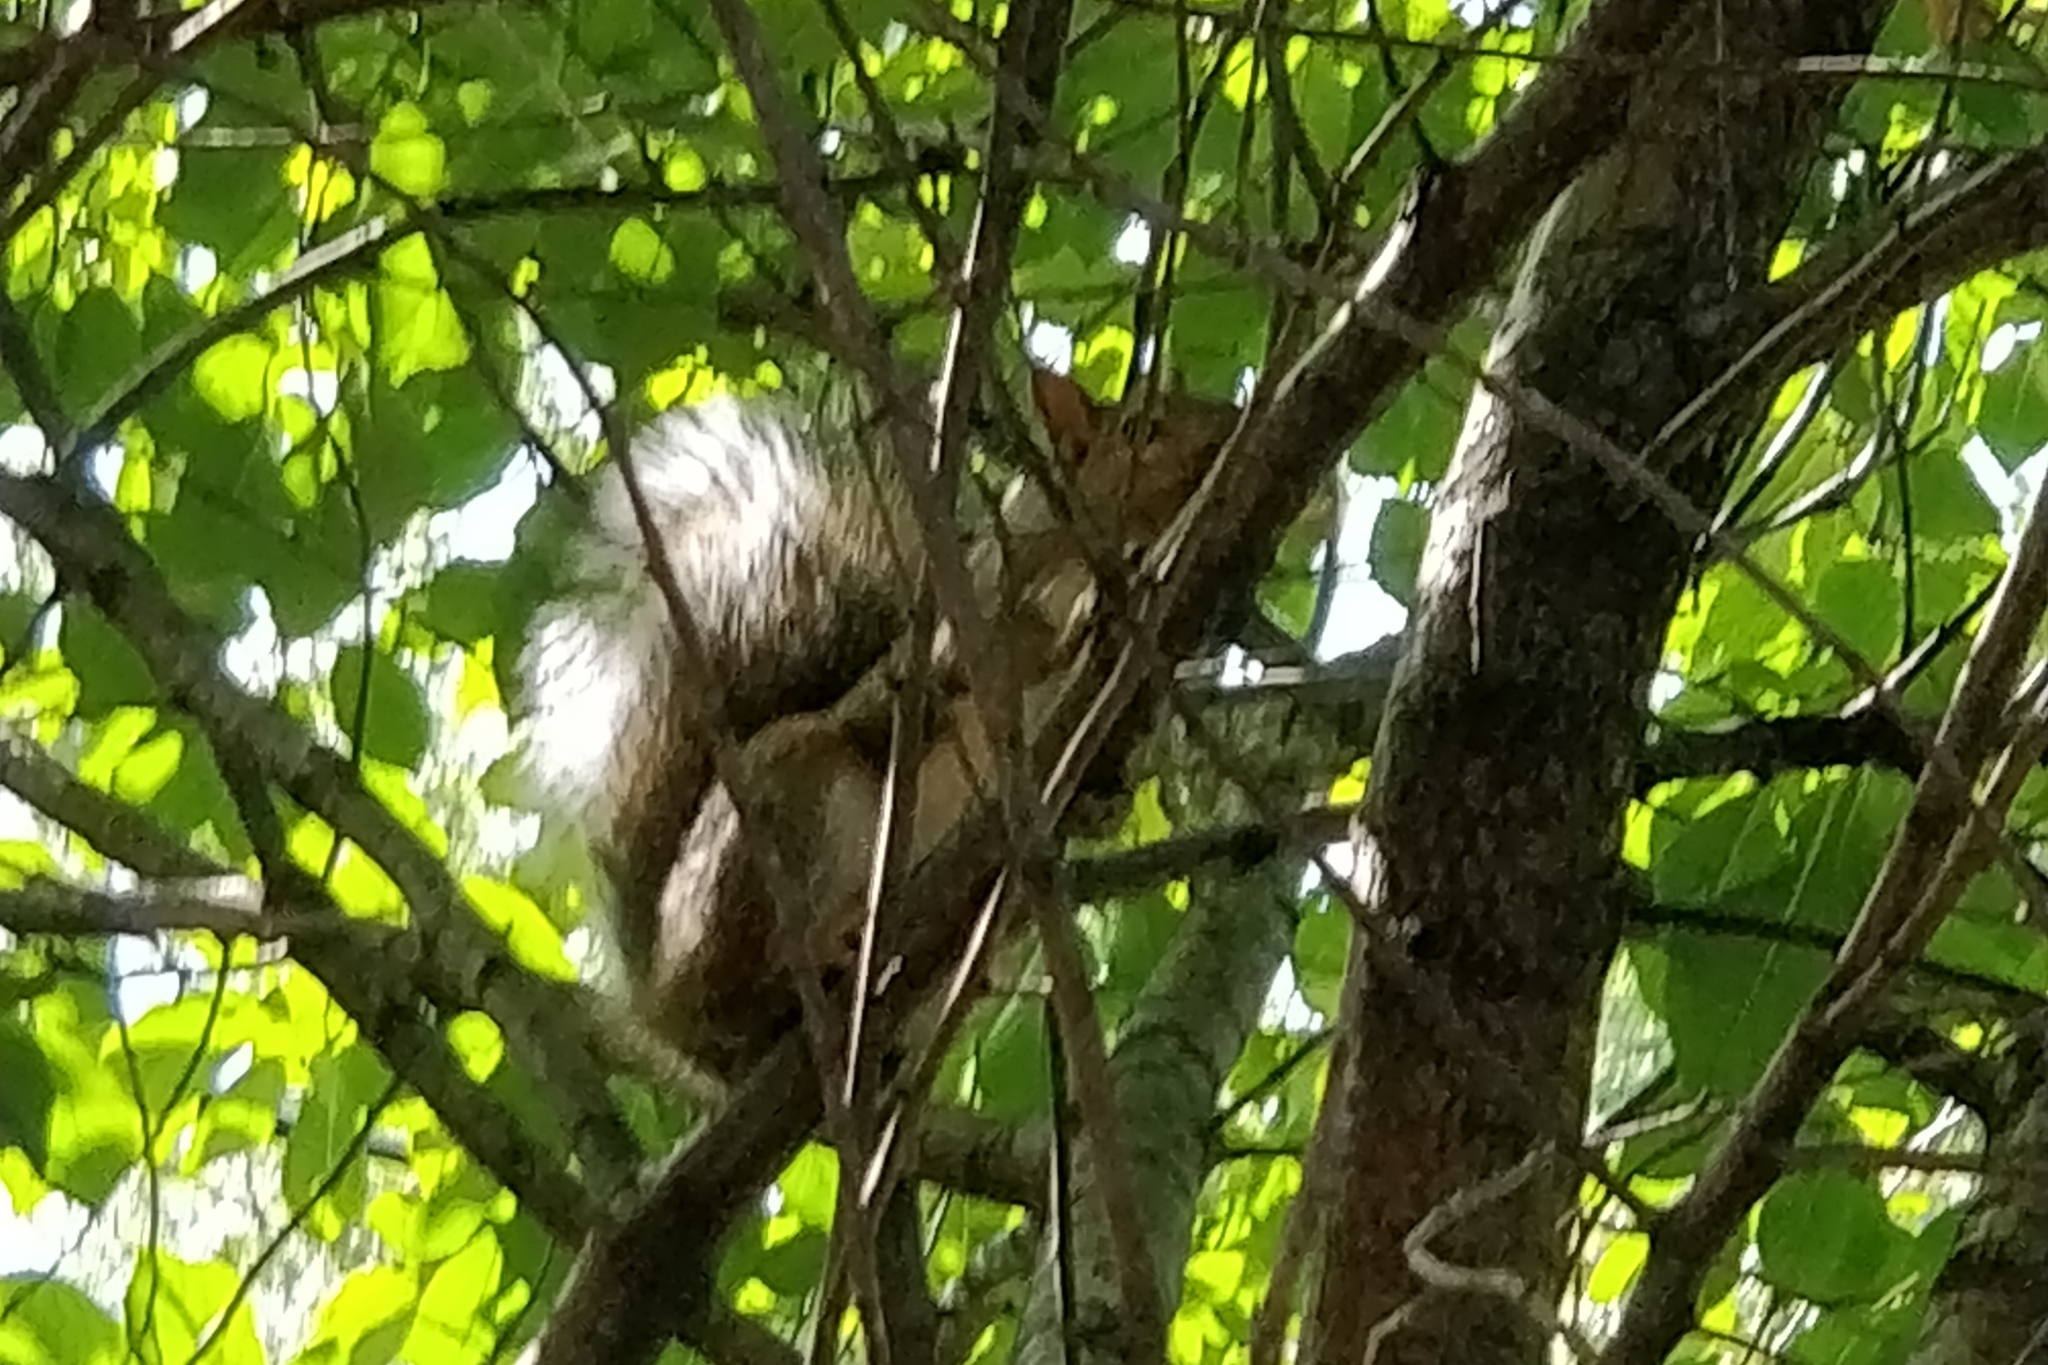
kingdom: Animalia
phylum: Chordata
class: Mammalia
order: Rodentia
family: Sciuridae
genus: Sciurus
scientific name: Sciurus carolinensis
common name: Eastern gray squirrel
